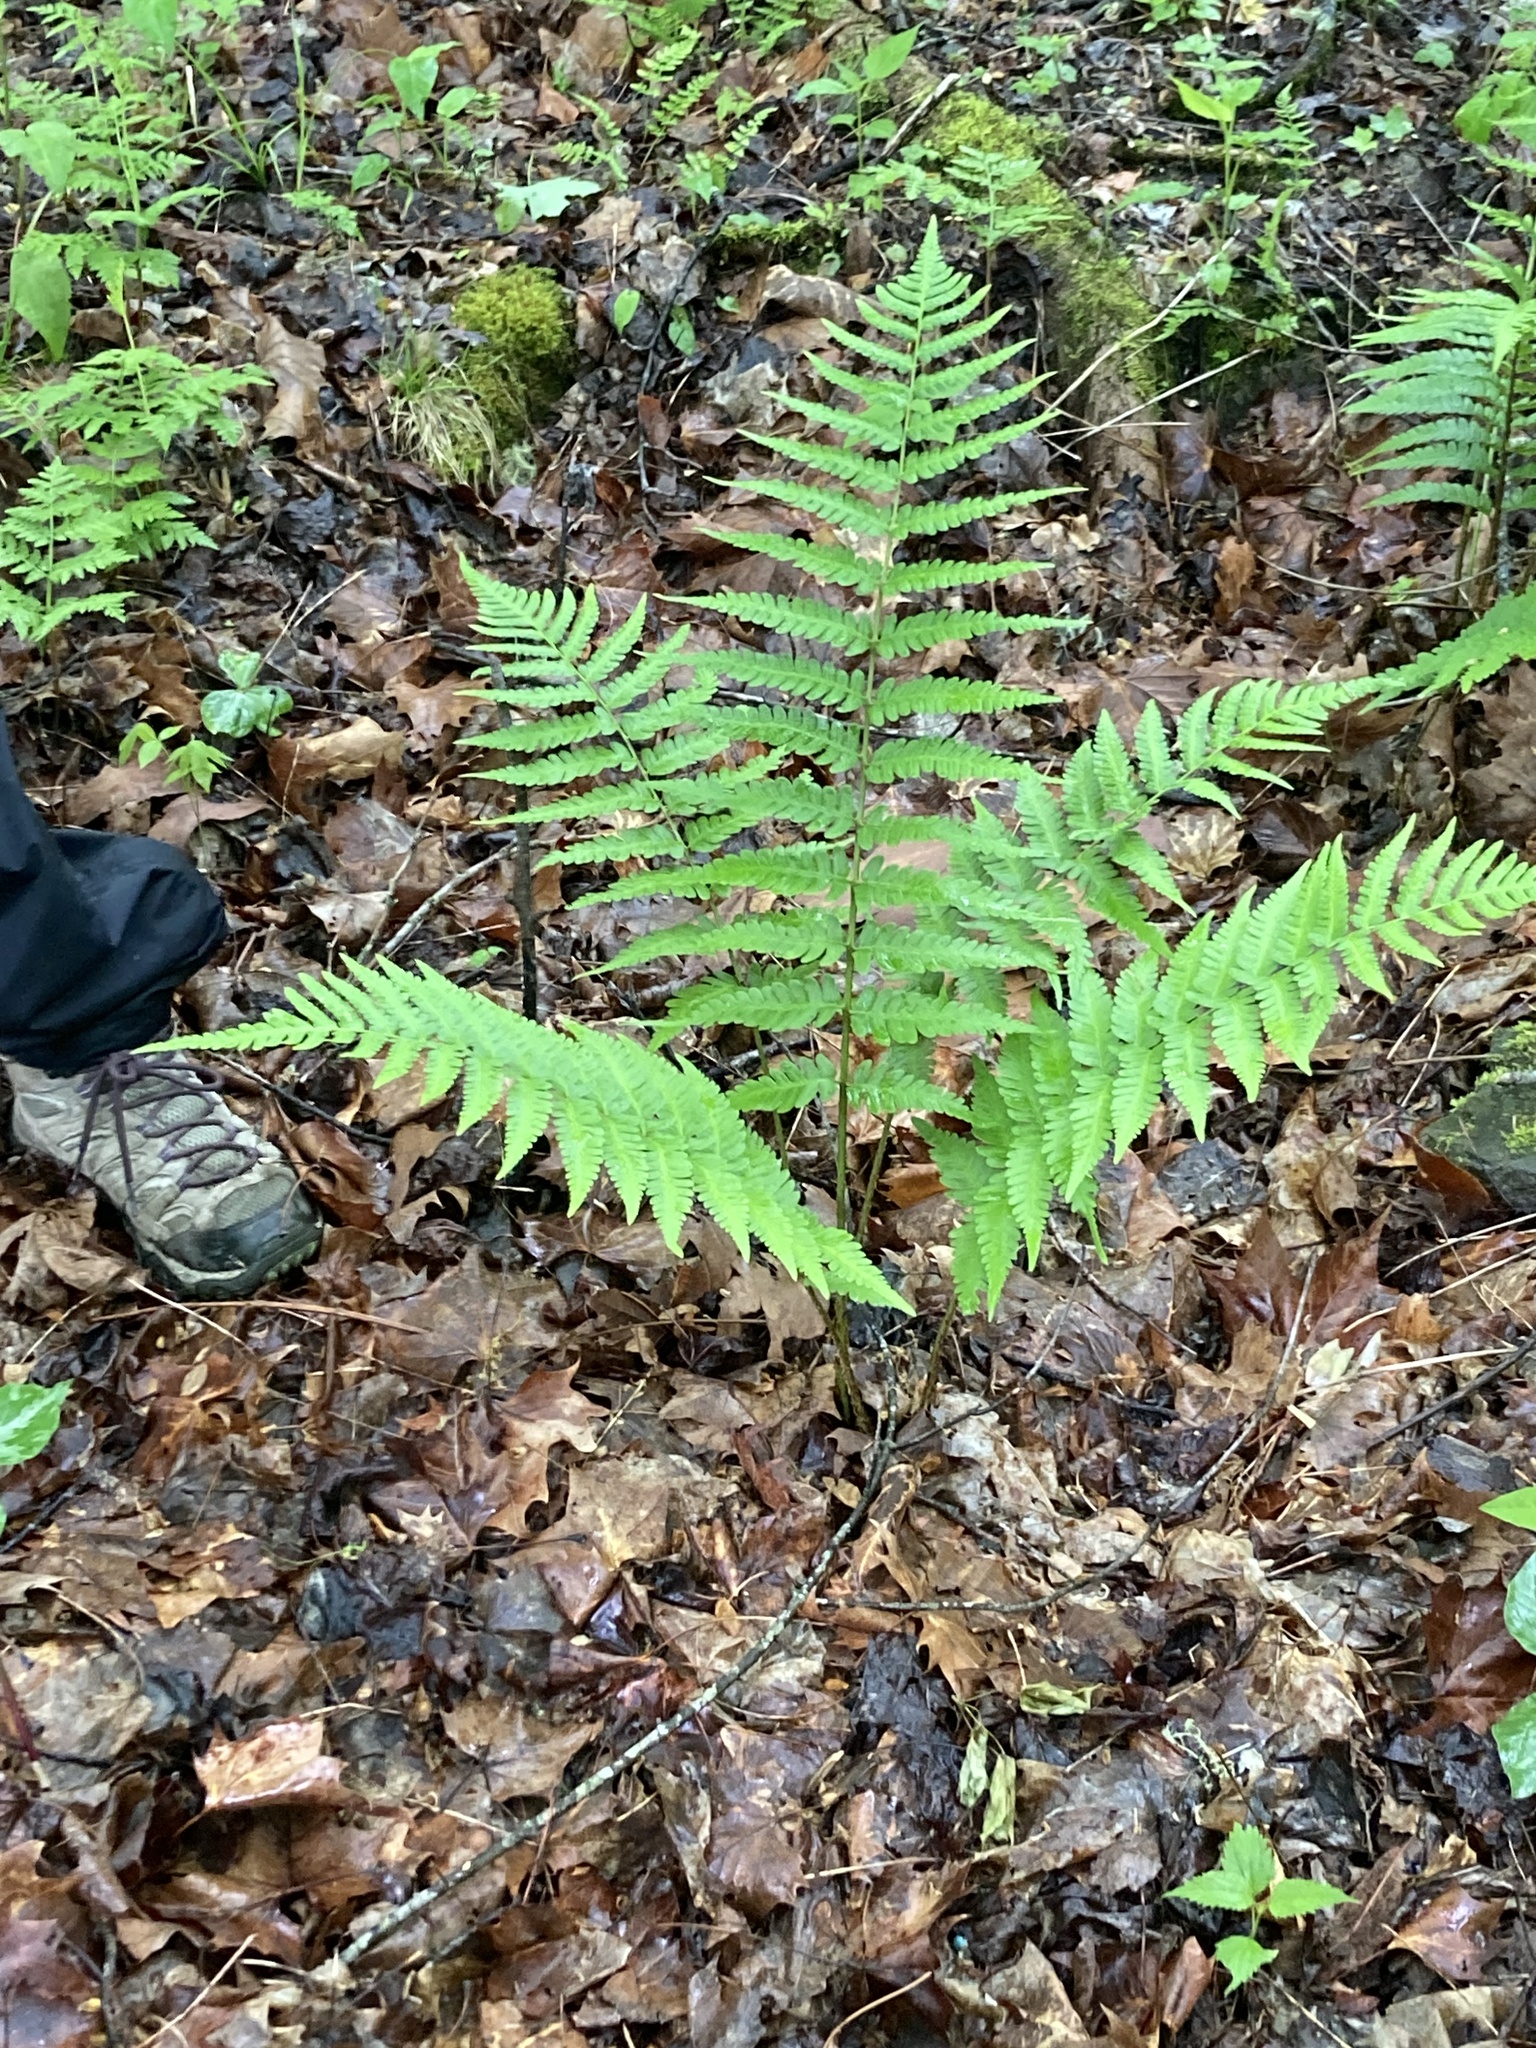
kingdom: Plantae
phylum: Tracheophyta
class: Polypodiopsida
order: Polypodiales
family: Dryopteridaceae
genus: Dryopteris
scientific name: Dryopteris celsa
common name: Log fern
